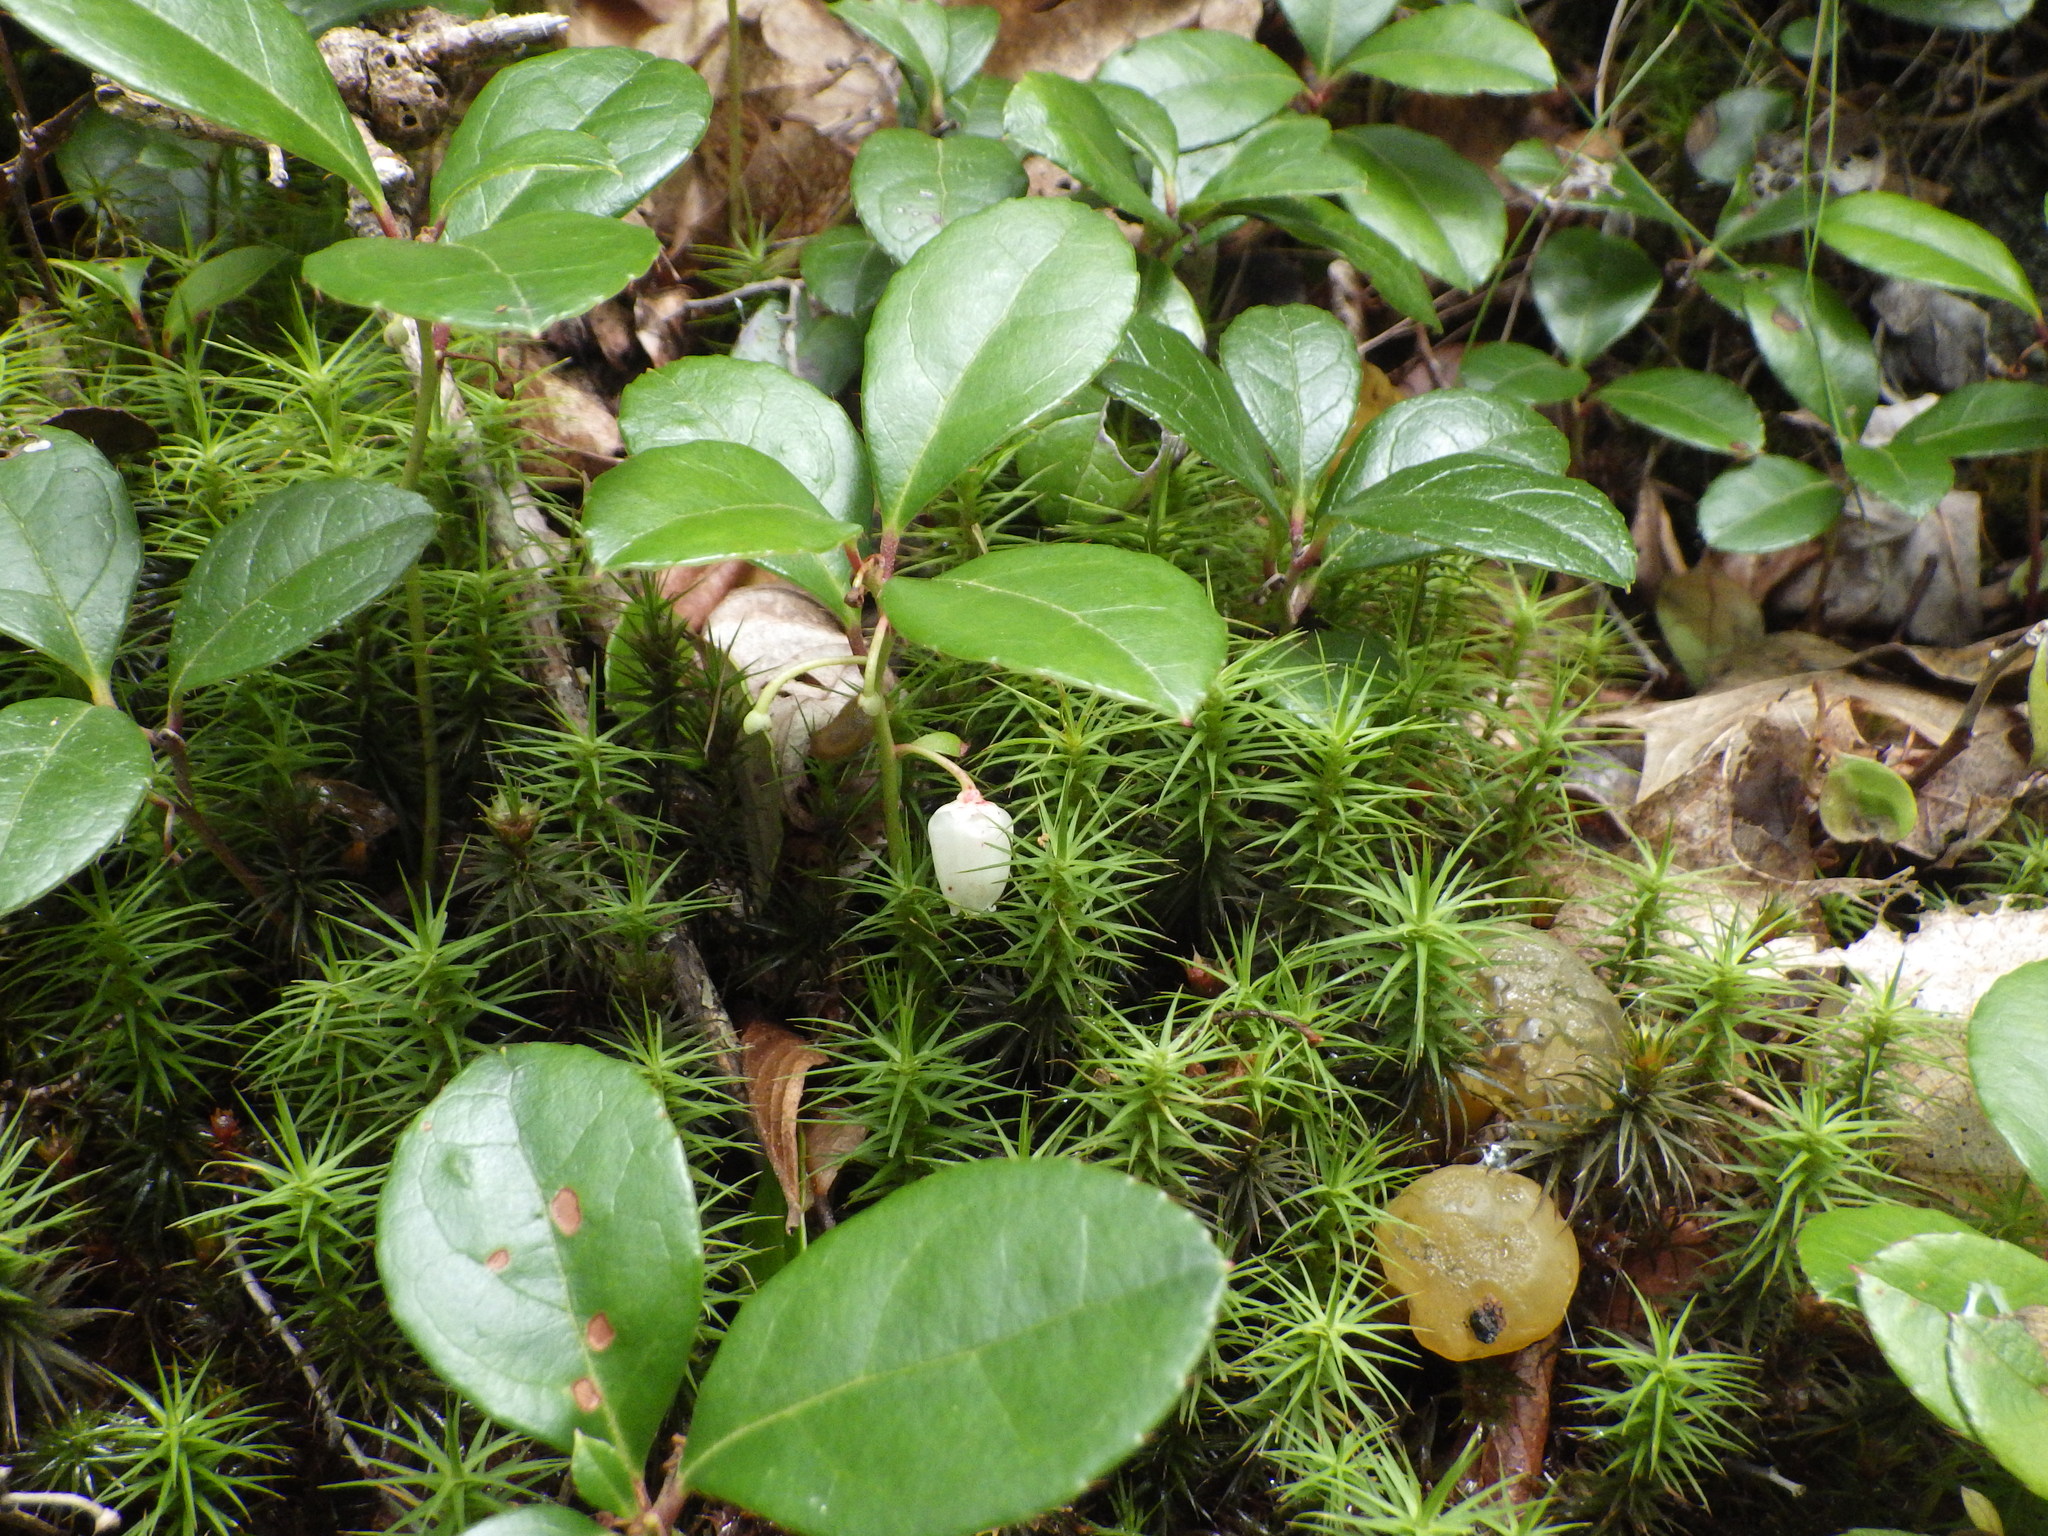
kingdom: Plantae
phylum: Tracheophyta
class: Magnoliopsida
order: Ericales
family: Ericaceae
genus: Gaultheria
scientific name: Gaultheria procumbens
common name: Checkerberry
